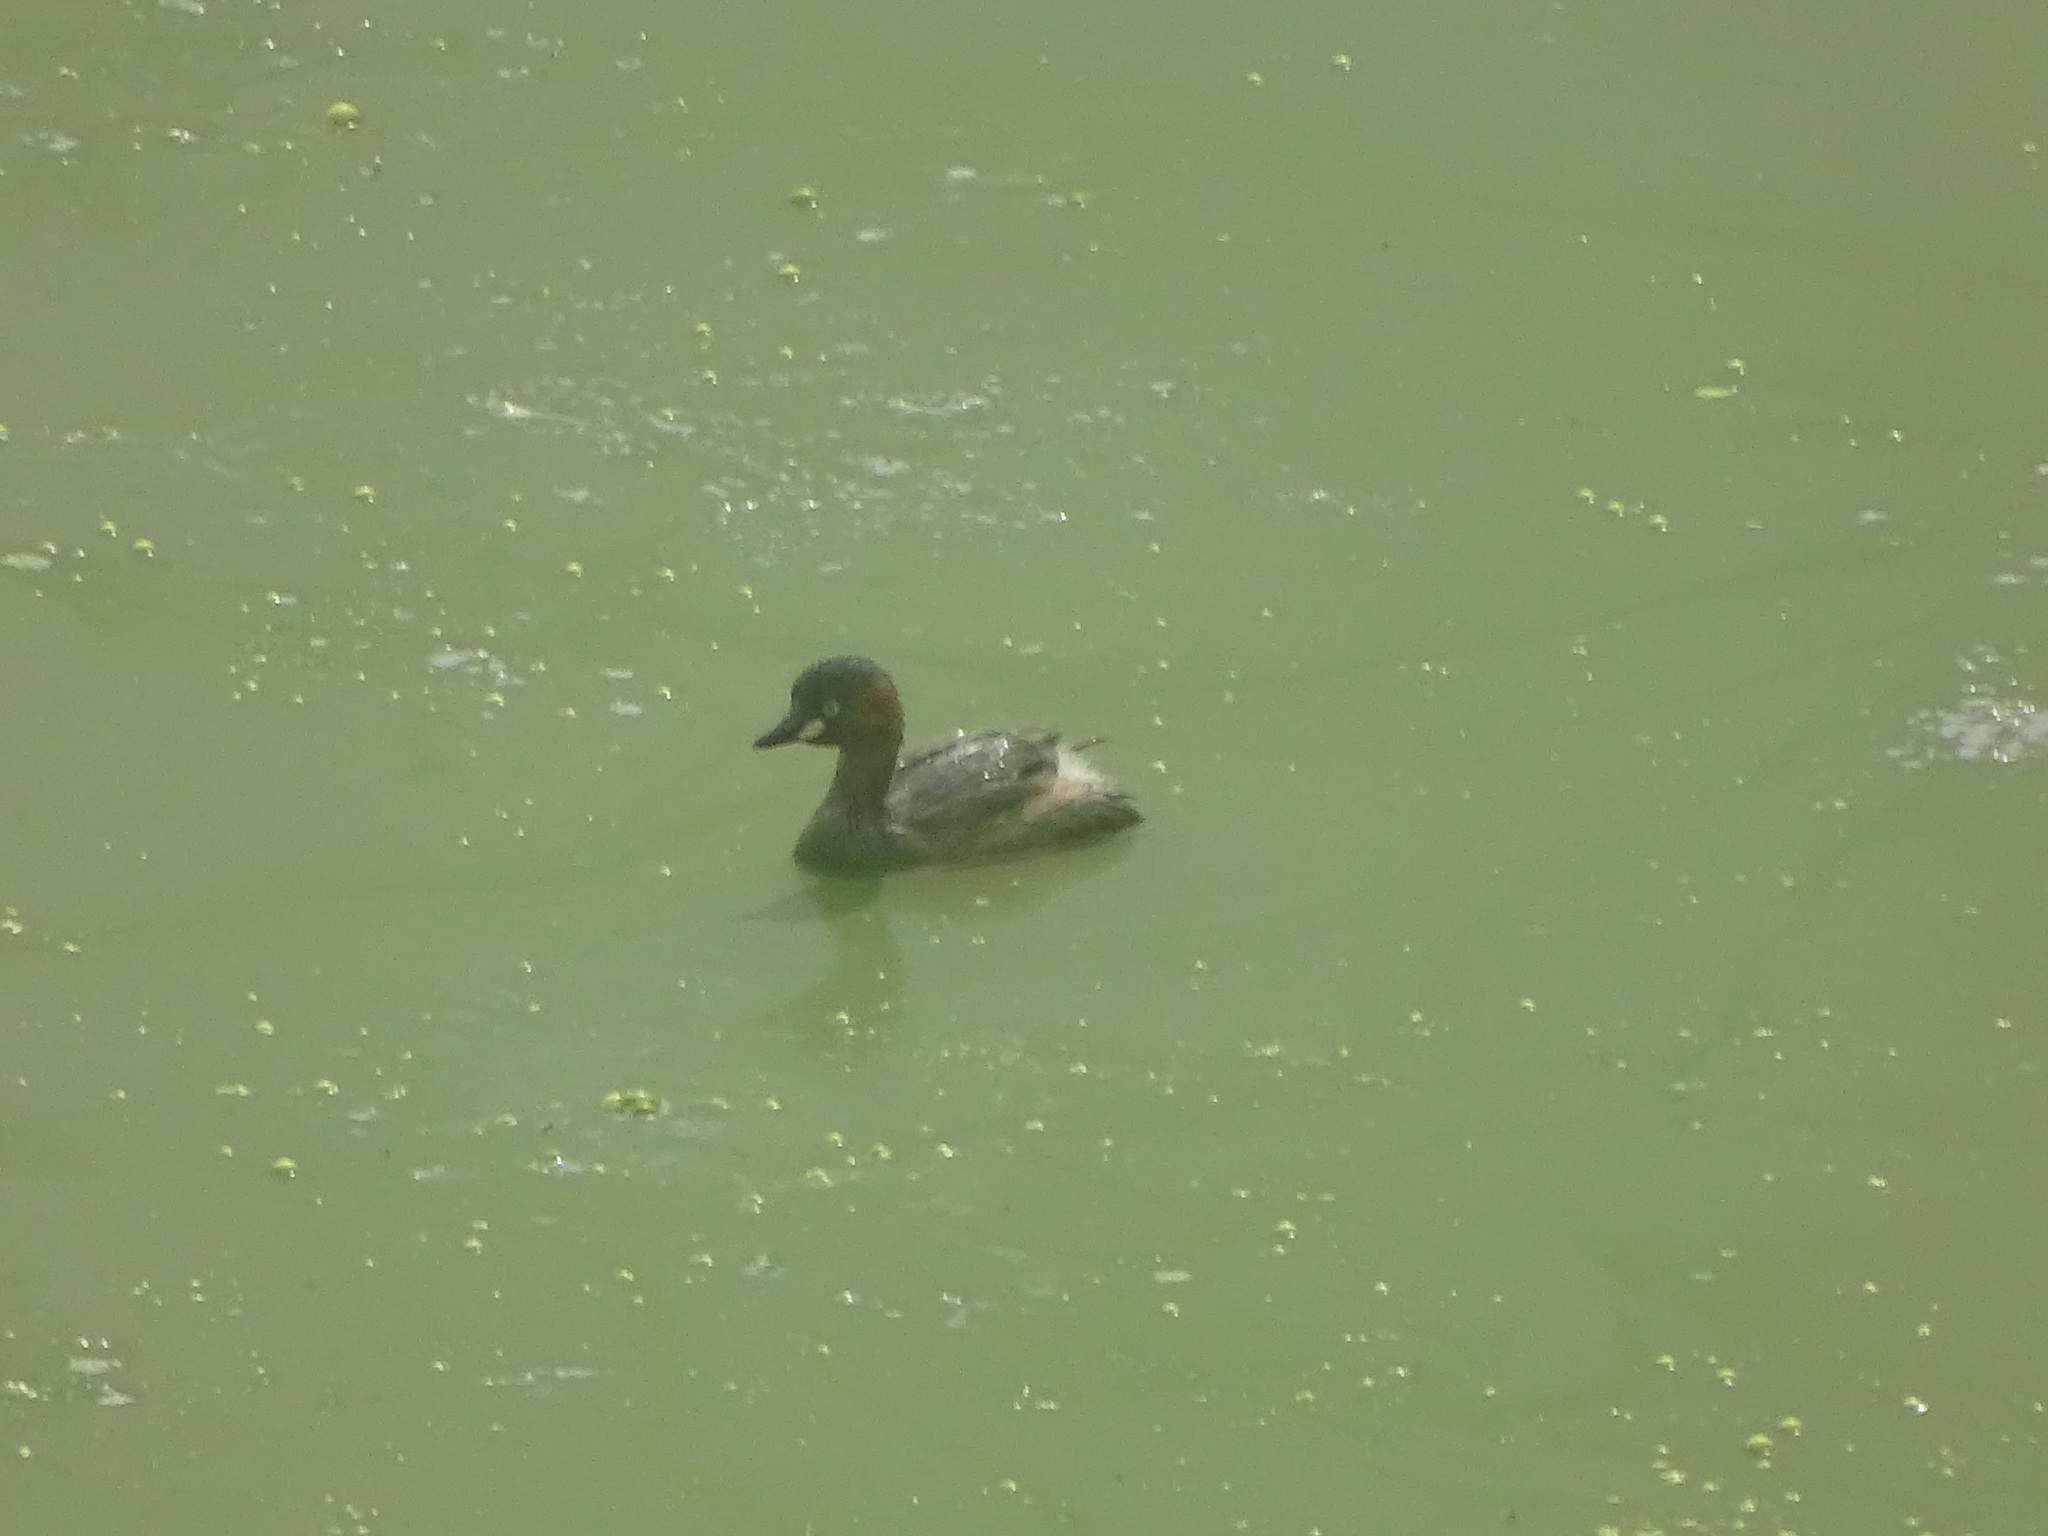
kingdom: Animalia
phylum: Chordata
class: Aves
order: Podicipediformes
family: Podicipedidae
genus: Tachybaptus
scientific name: Tachybaptus ruficollis
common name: Little grebe
